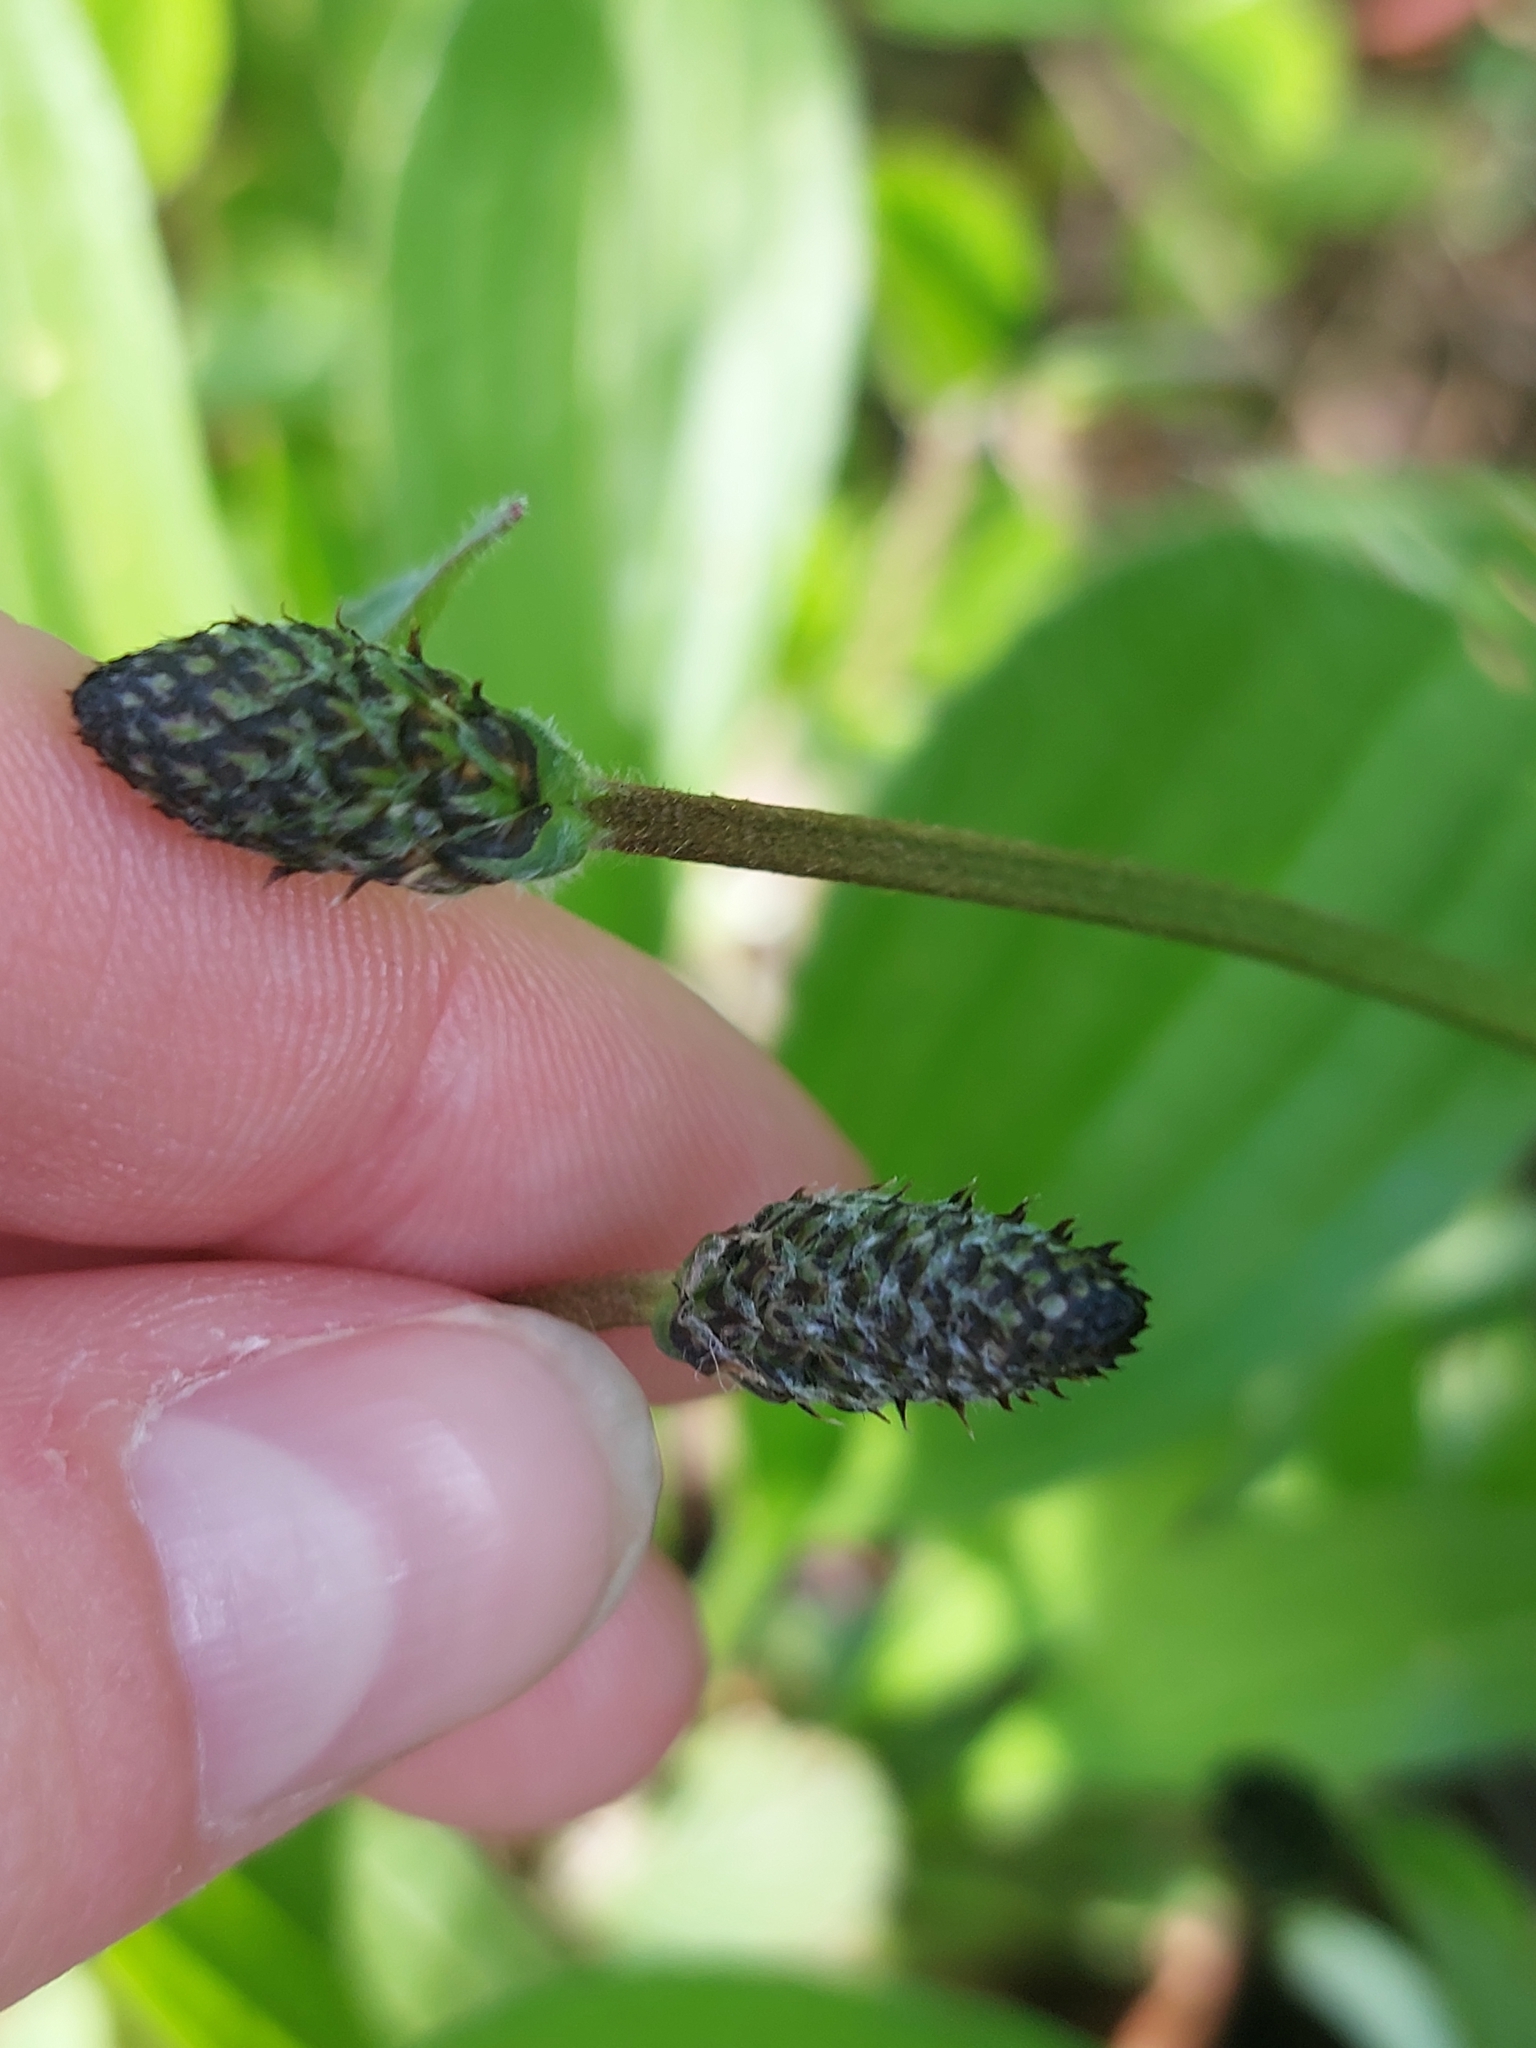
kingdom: Plantae
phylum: Tracheophyta
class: Magnoliopsida
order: Lamiales
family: Plantaginaceae
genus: Plantago
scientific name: Plantago lanceolata
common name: Ribwort plantain
